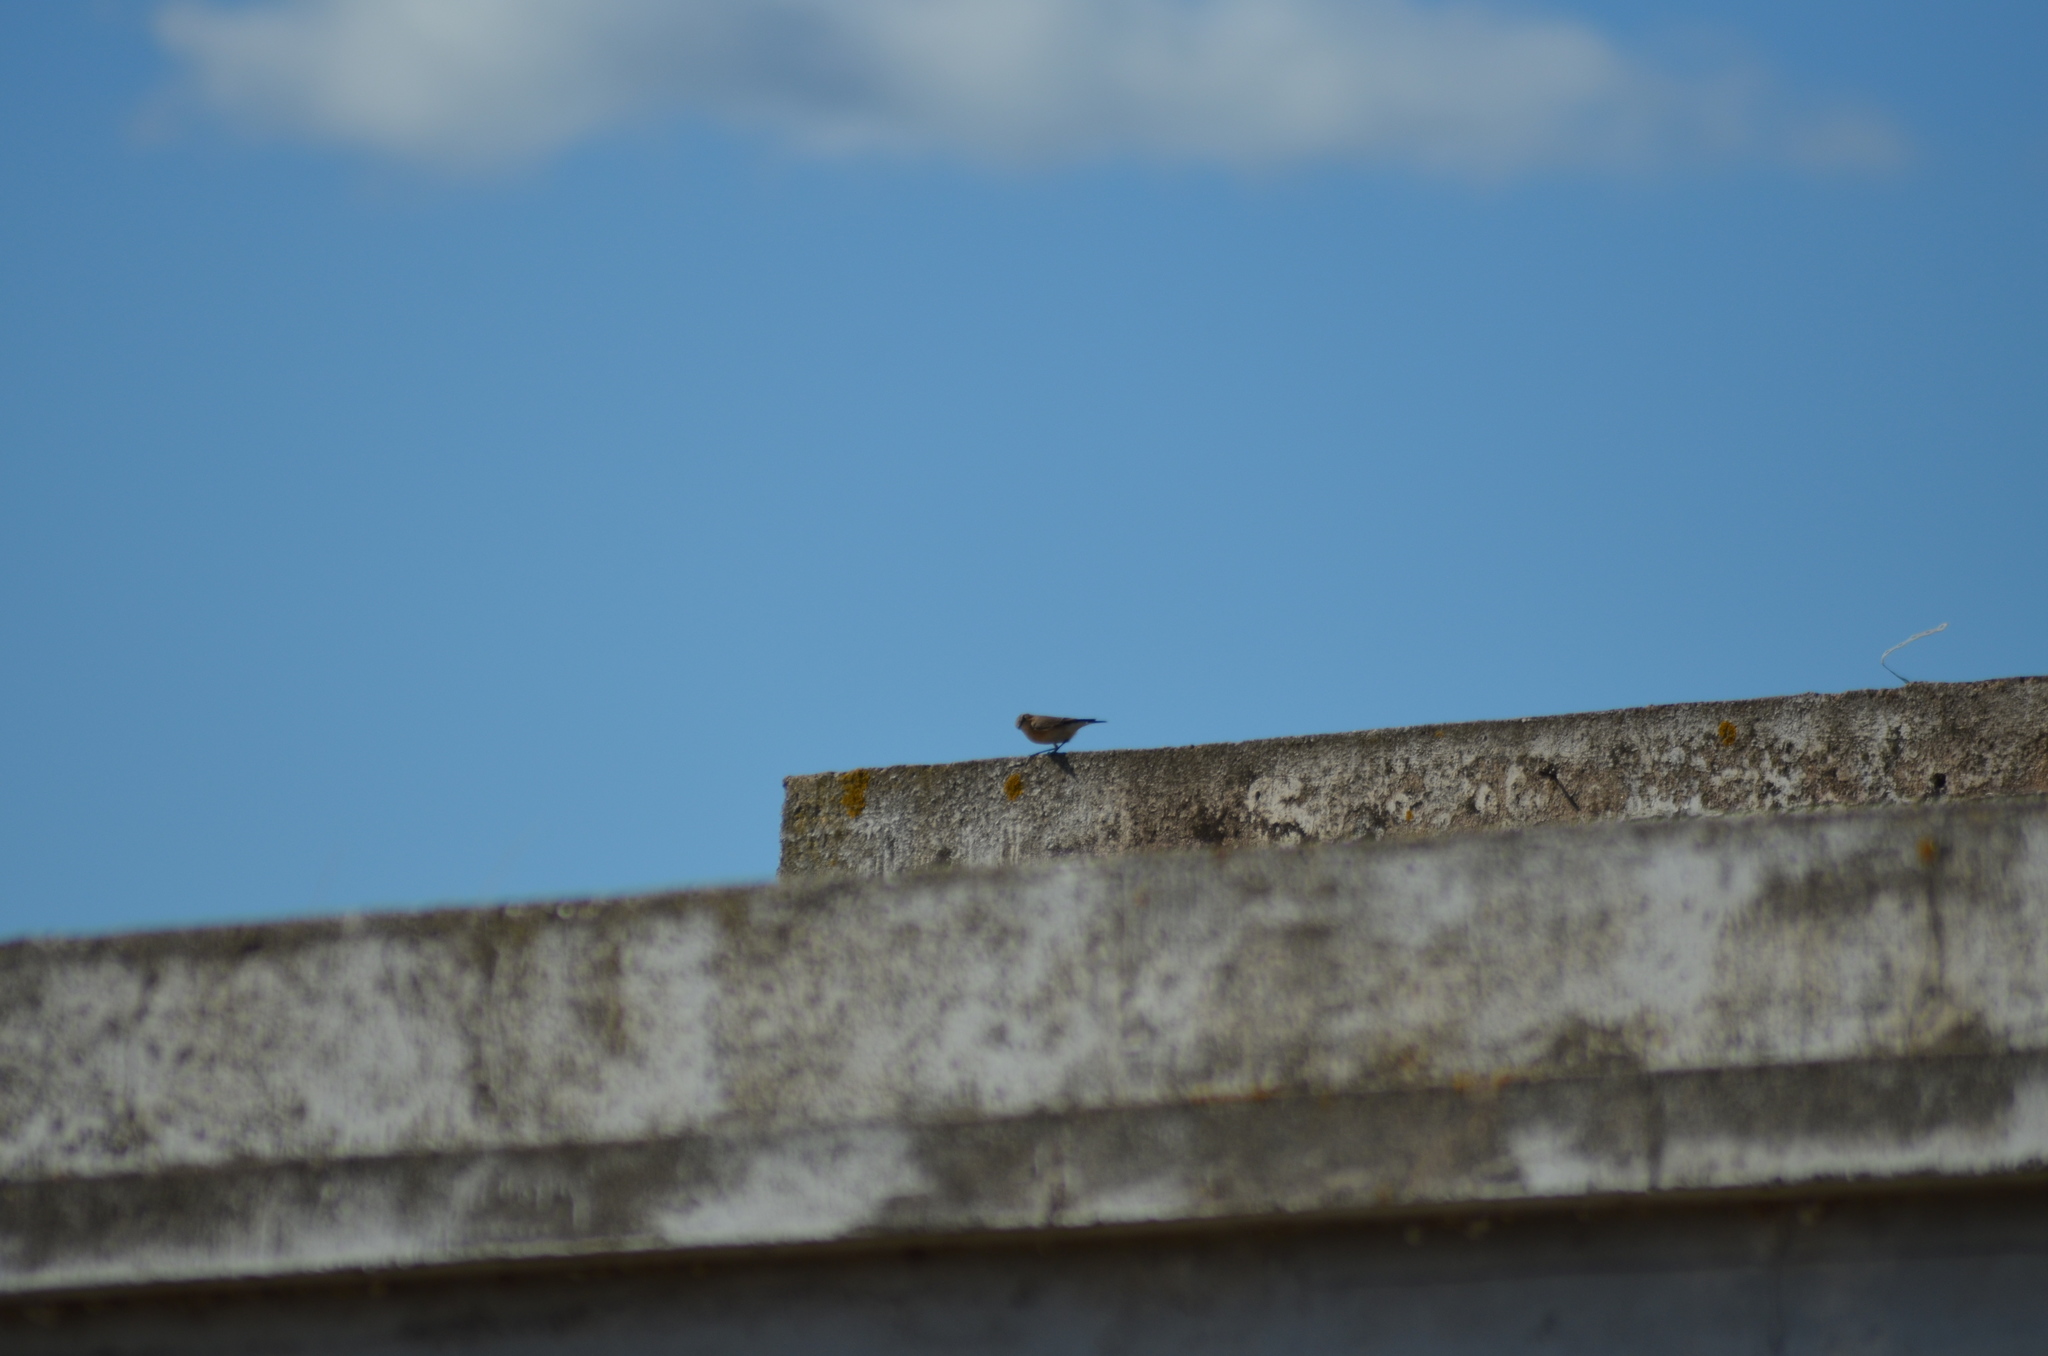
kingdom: Animalia
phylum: Chordata
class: Aves
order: Passeriformes
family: Muscicapidae
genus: Oenanthe
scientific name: Oenanthe oenanthe
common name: Northern wheatear
